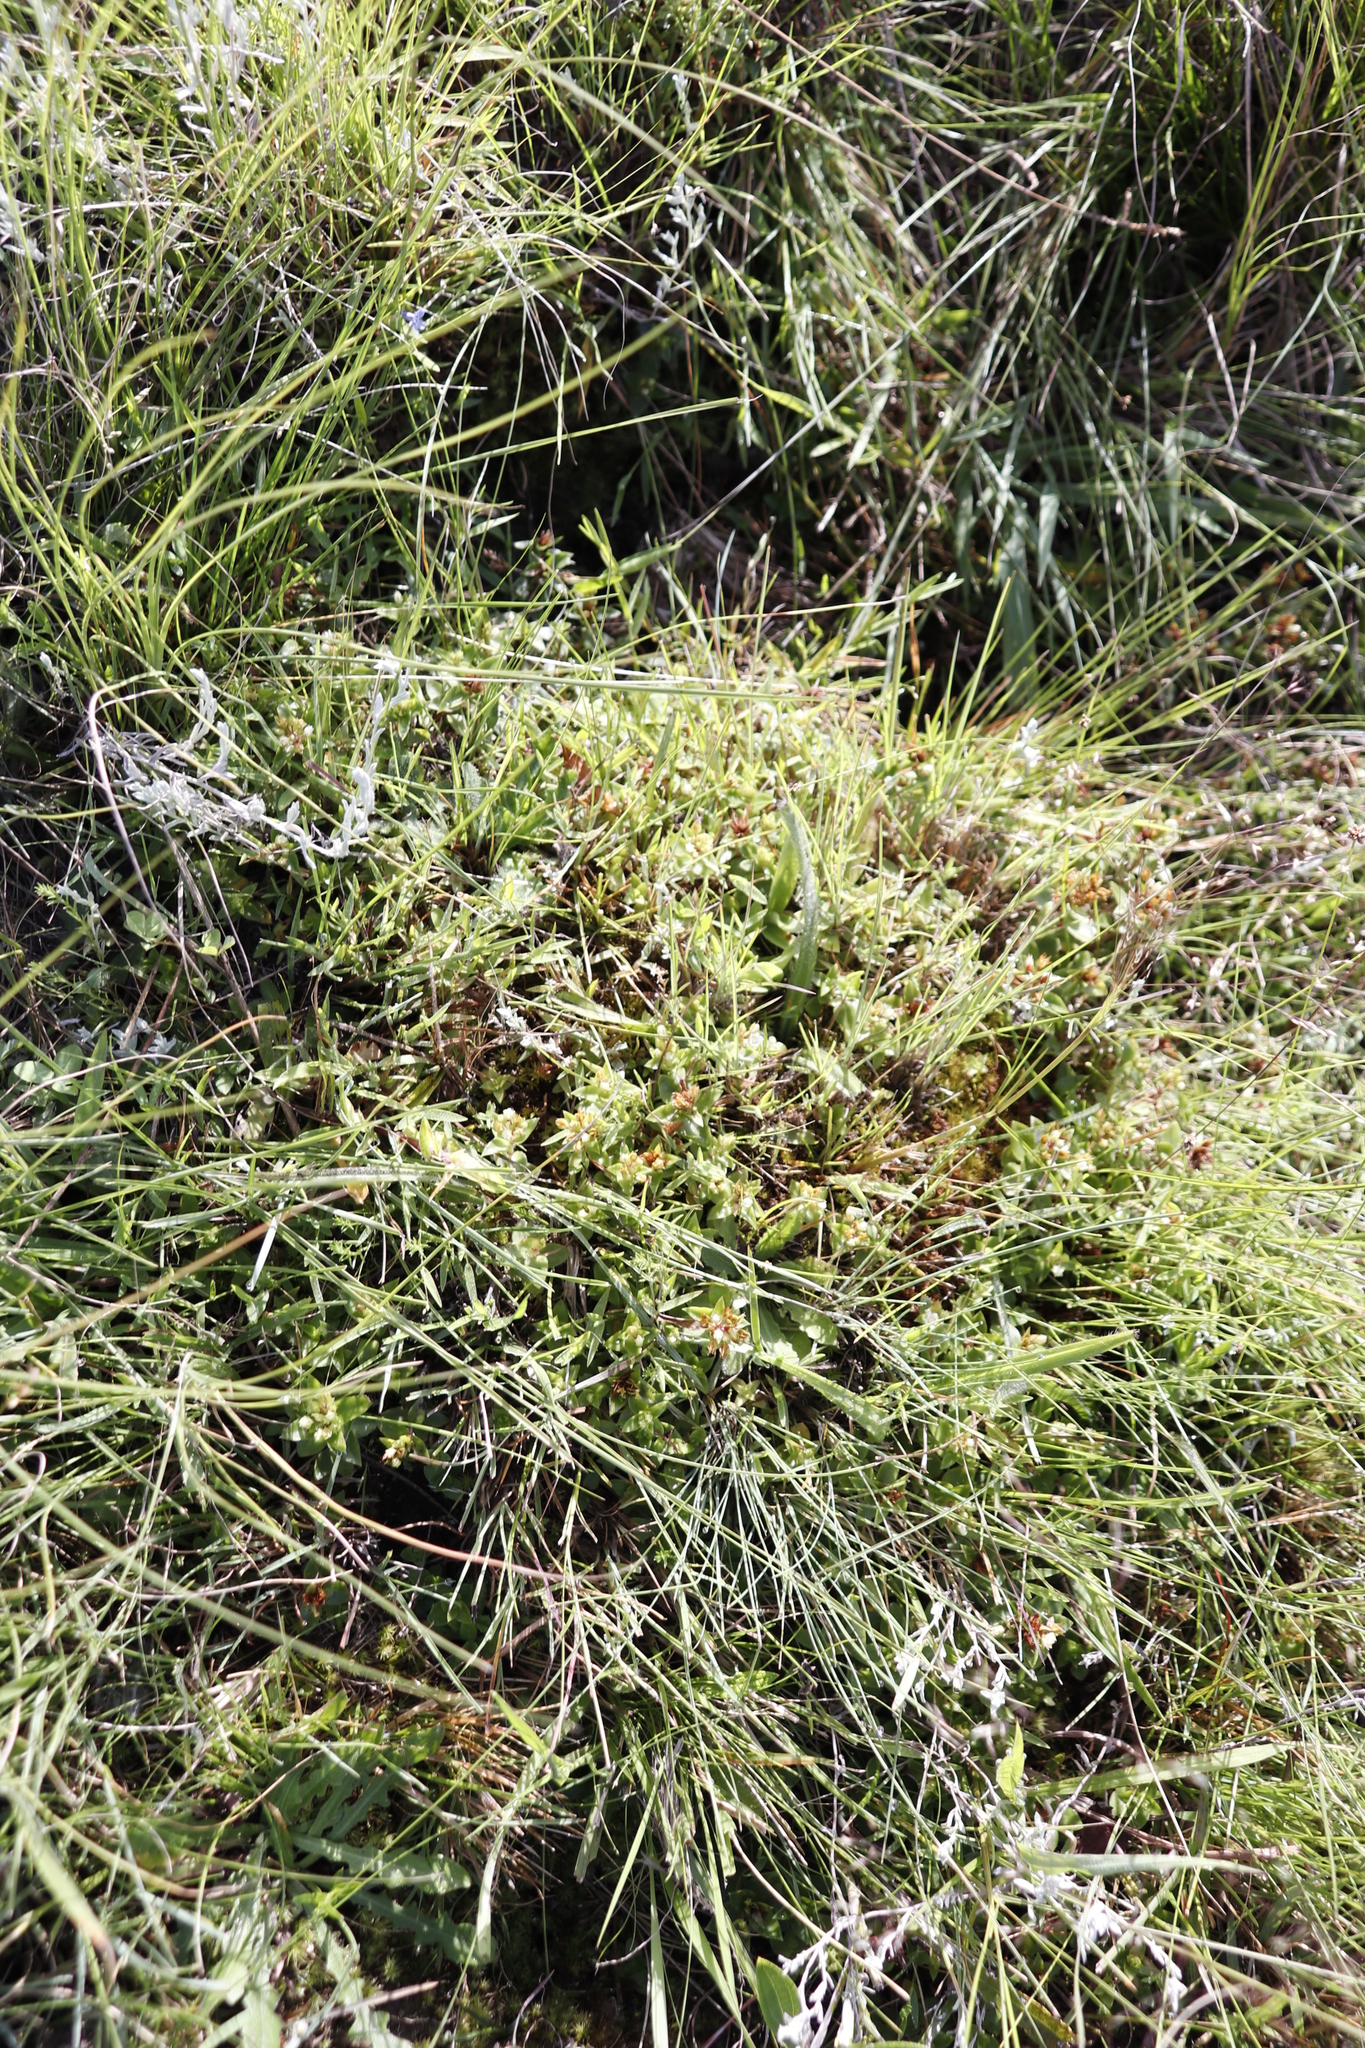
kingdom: Plantae
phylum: Tracheophyta
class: Magnoliopsida
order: Saxifragales
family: Crassulaceae
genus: Crassula
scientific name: Crassula pellucida
